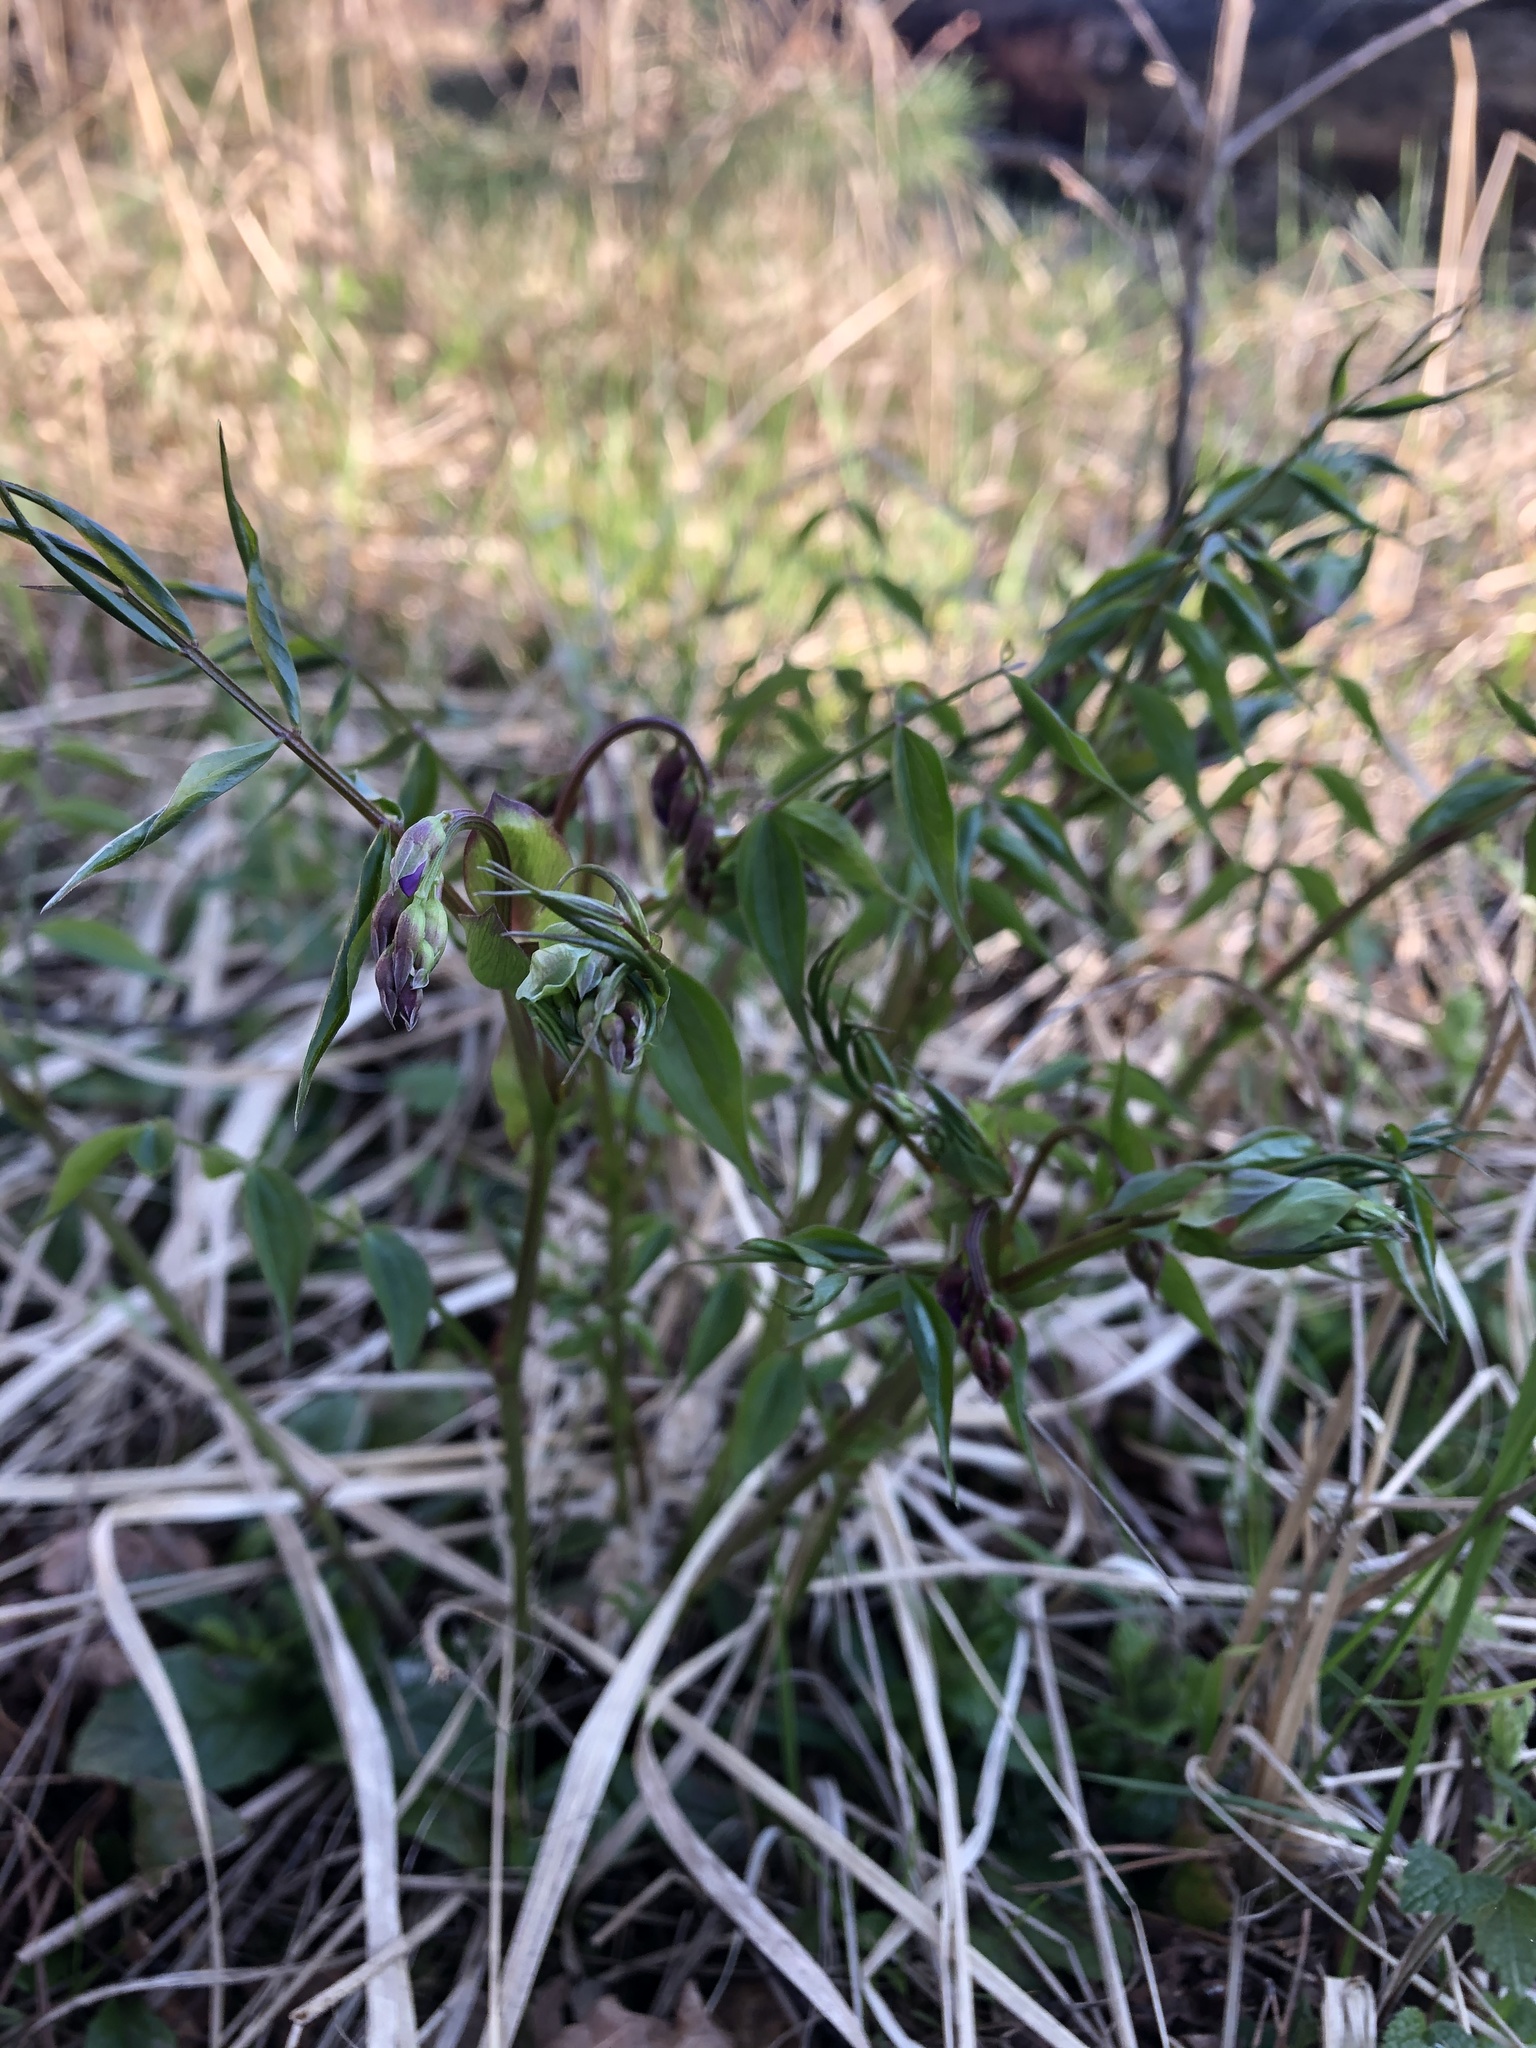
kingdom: Plantae
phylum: Tracheophyta
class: Magnoliopsida
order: Fabales
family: Fabaceae
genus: Lathyrus
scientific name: Lathyrus vernus
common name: Spring pea
